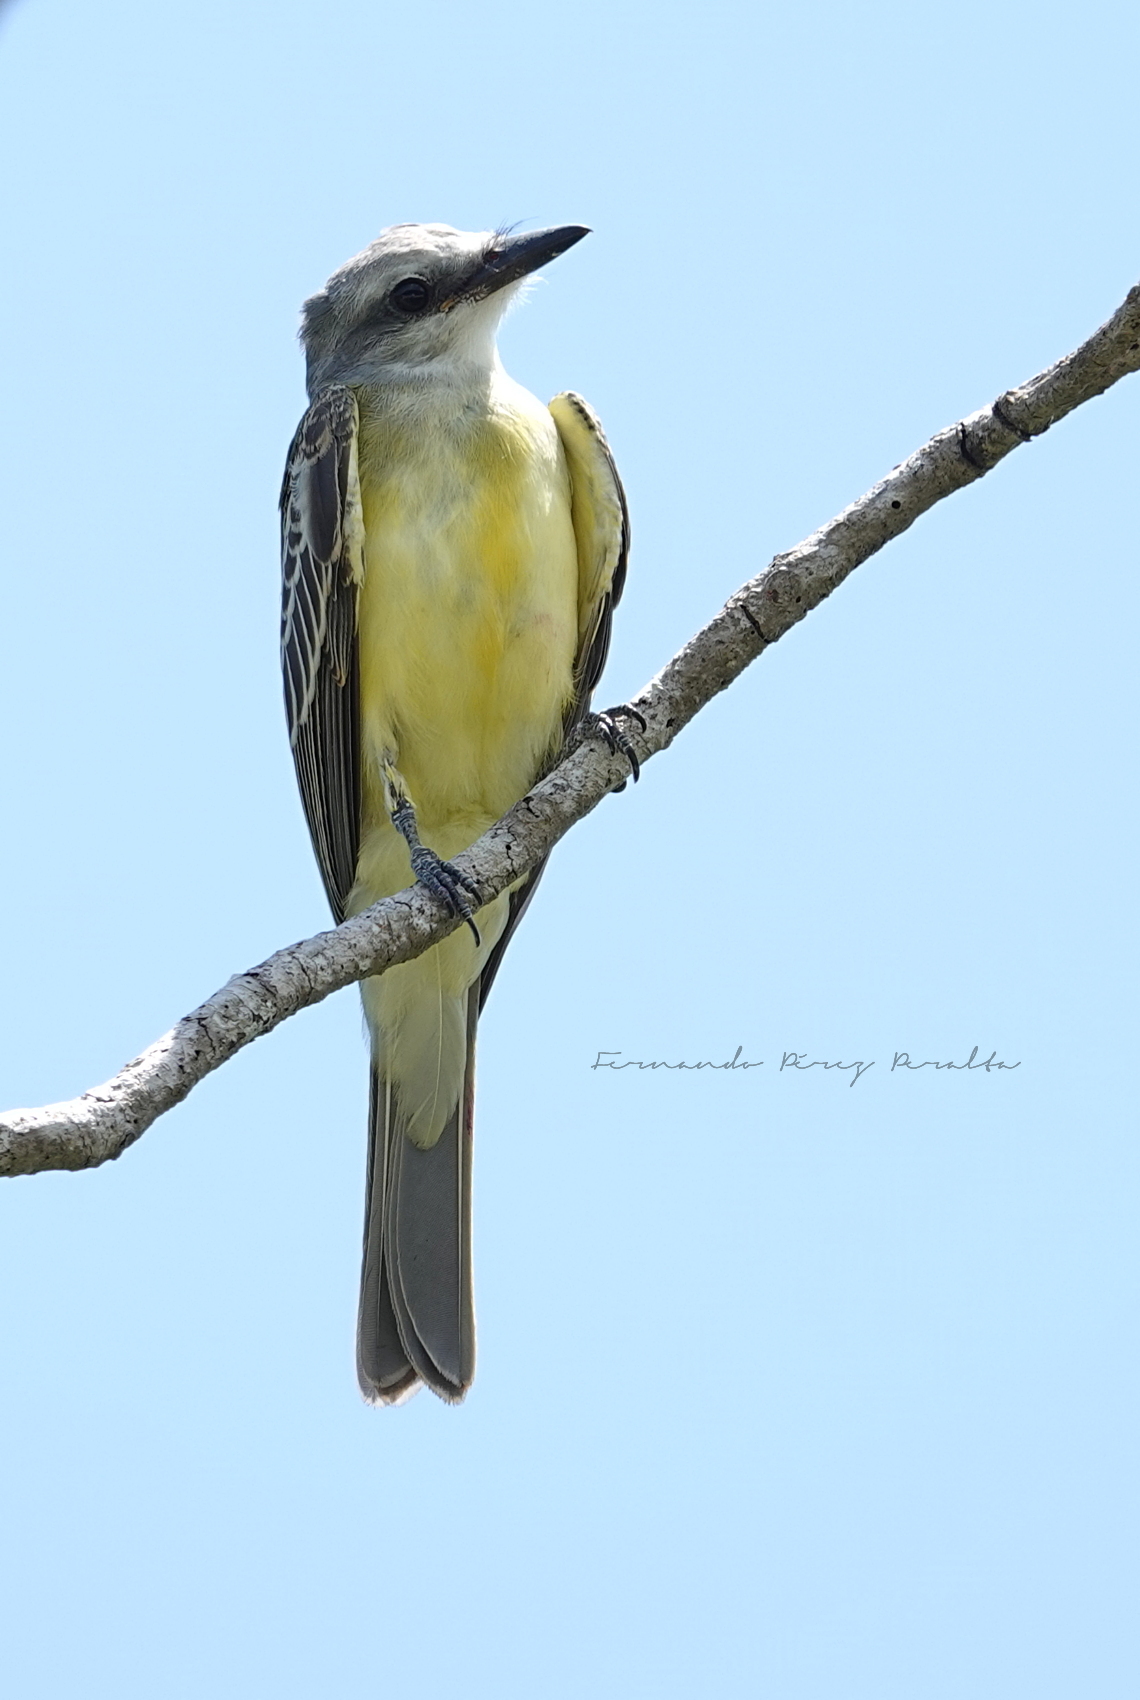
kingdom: Animalia
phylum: Chordata
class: Aves
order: Passeriformes
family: Tyrannidae
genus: Tyrannus
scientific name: Tyrannus couchii
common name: Couch's kingbird
